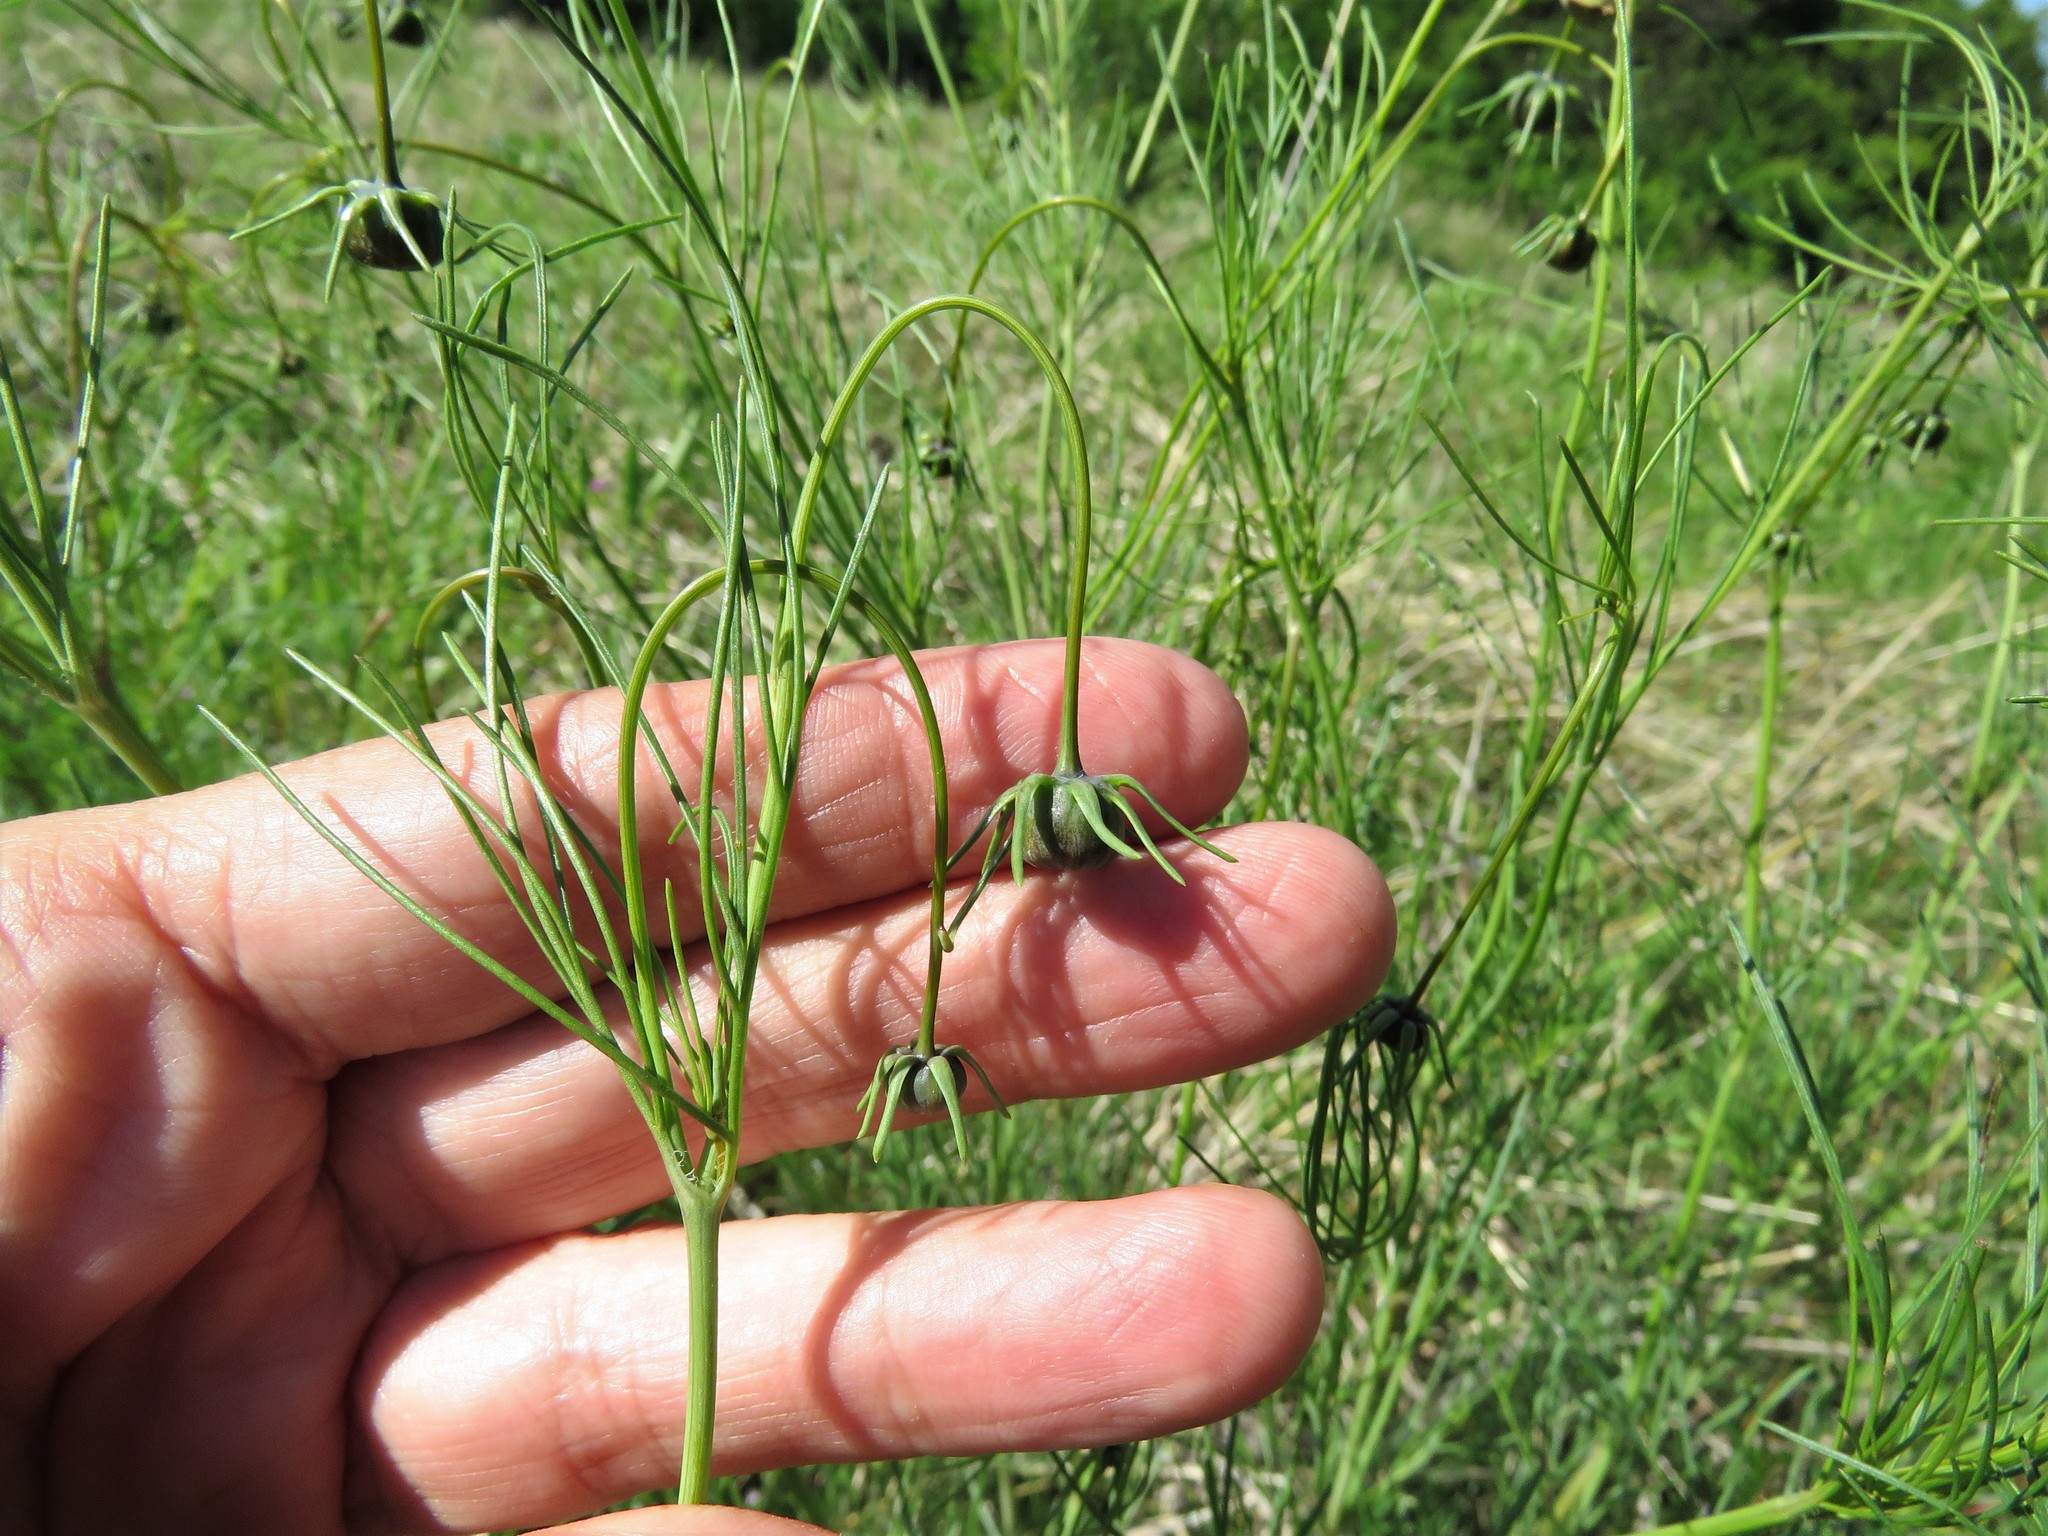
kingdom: Plantae
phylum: Tracheophyta
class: Magnoliopsida
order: Asterales
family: Asteraceae
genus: Thelesperma
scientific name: Thelesperma filifolium
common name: Stiff greenthread
